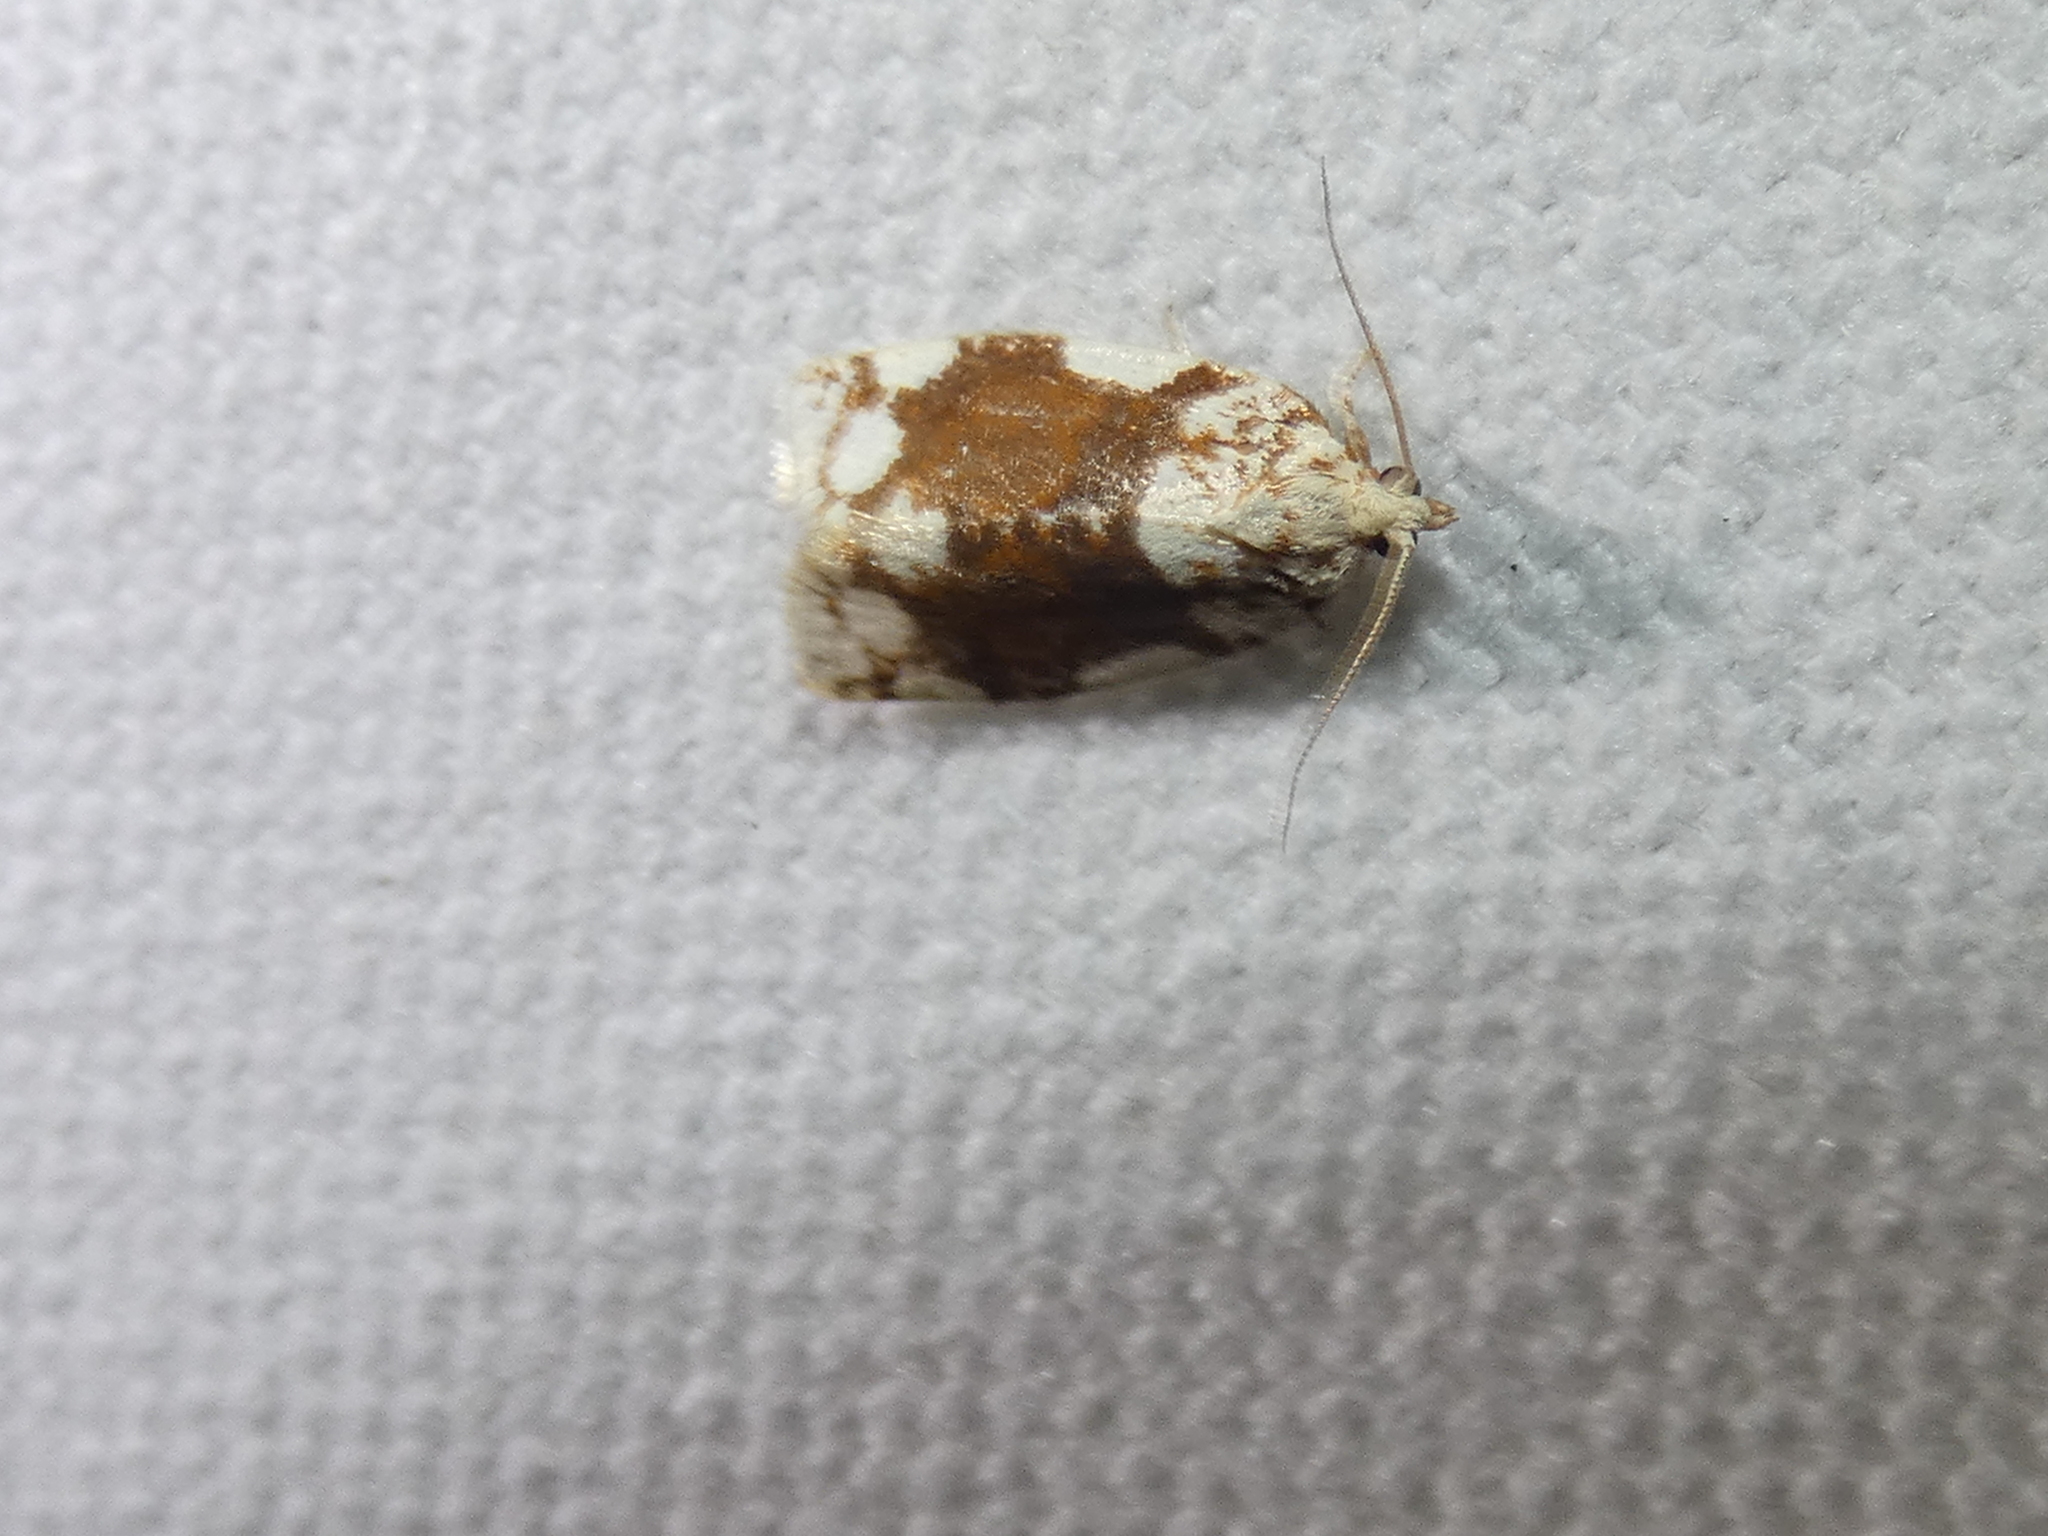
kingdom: Animalia
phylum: Arthropoda
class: Insecta
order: Lepidoptera
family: Tortricidae
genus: Argyrotaenia
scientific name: Argyrotaenia alisellana
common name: White-spotted leafroller moth
